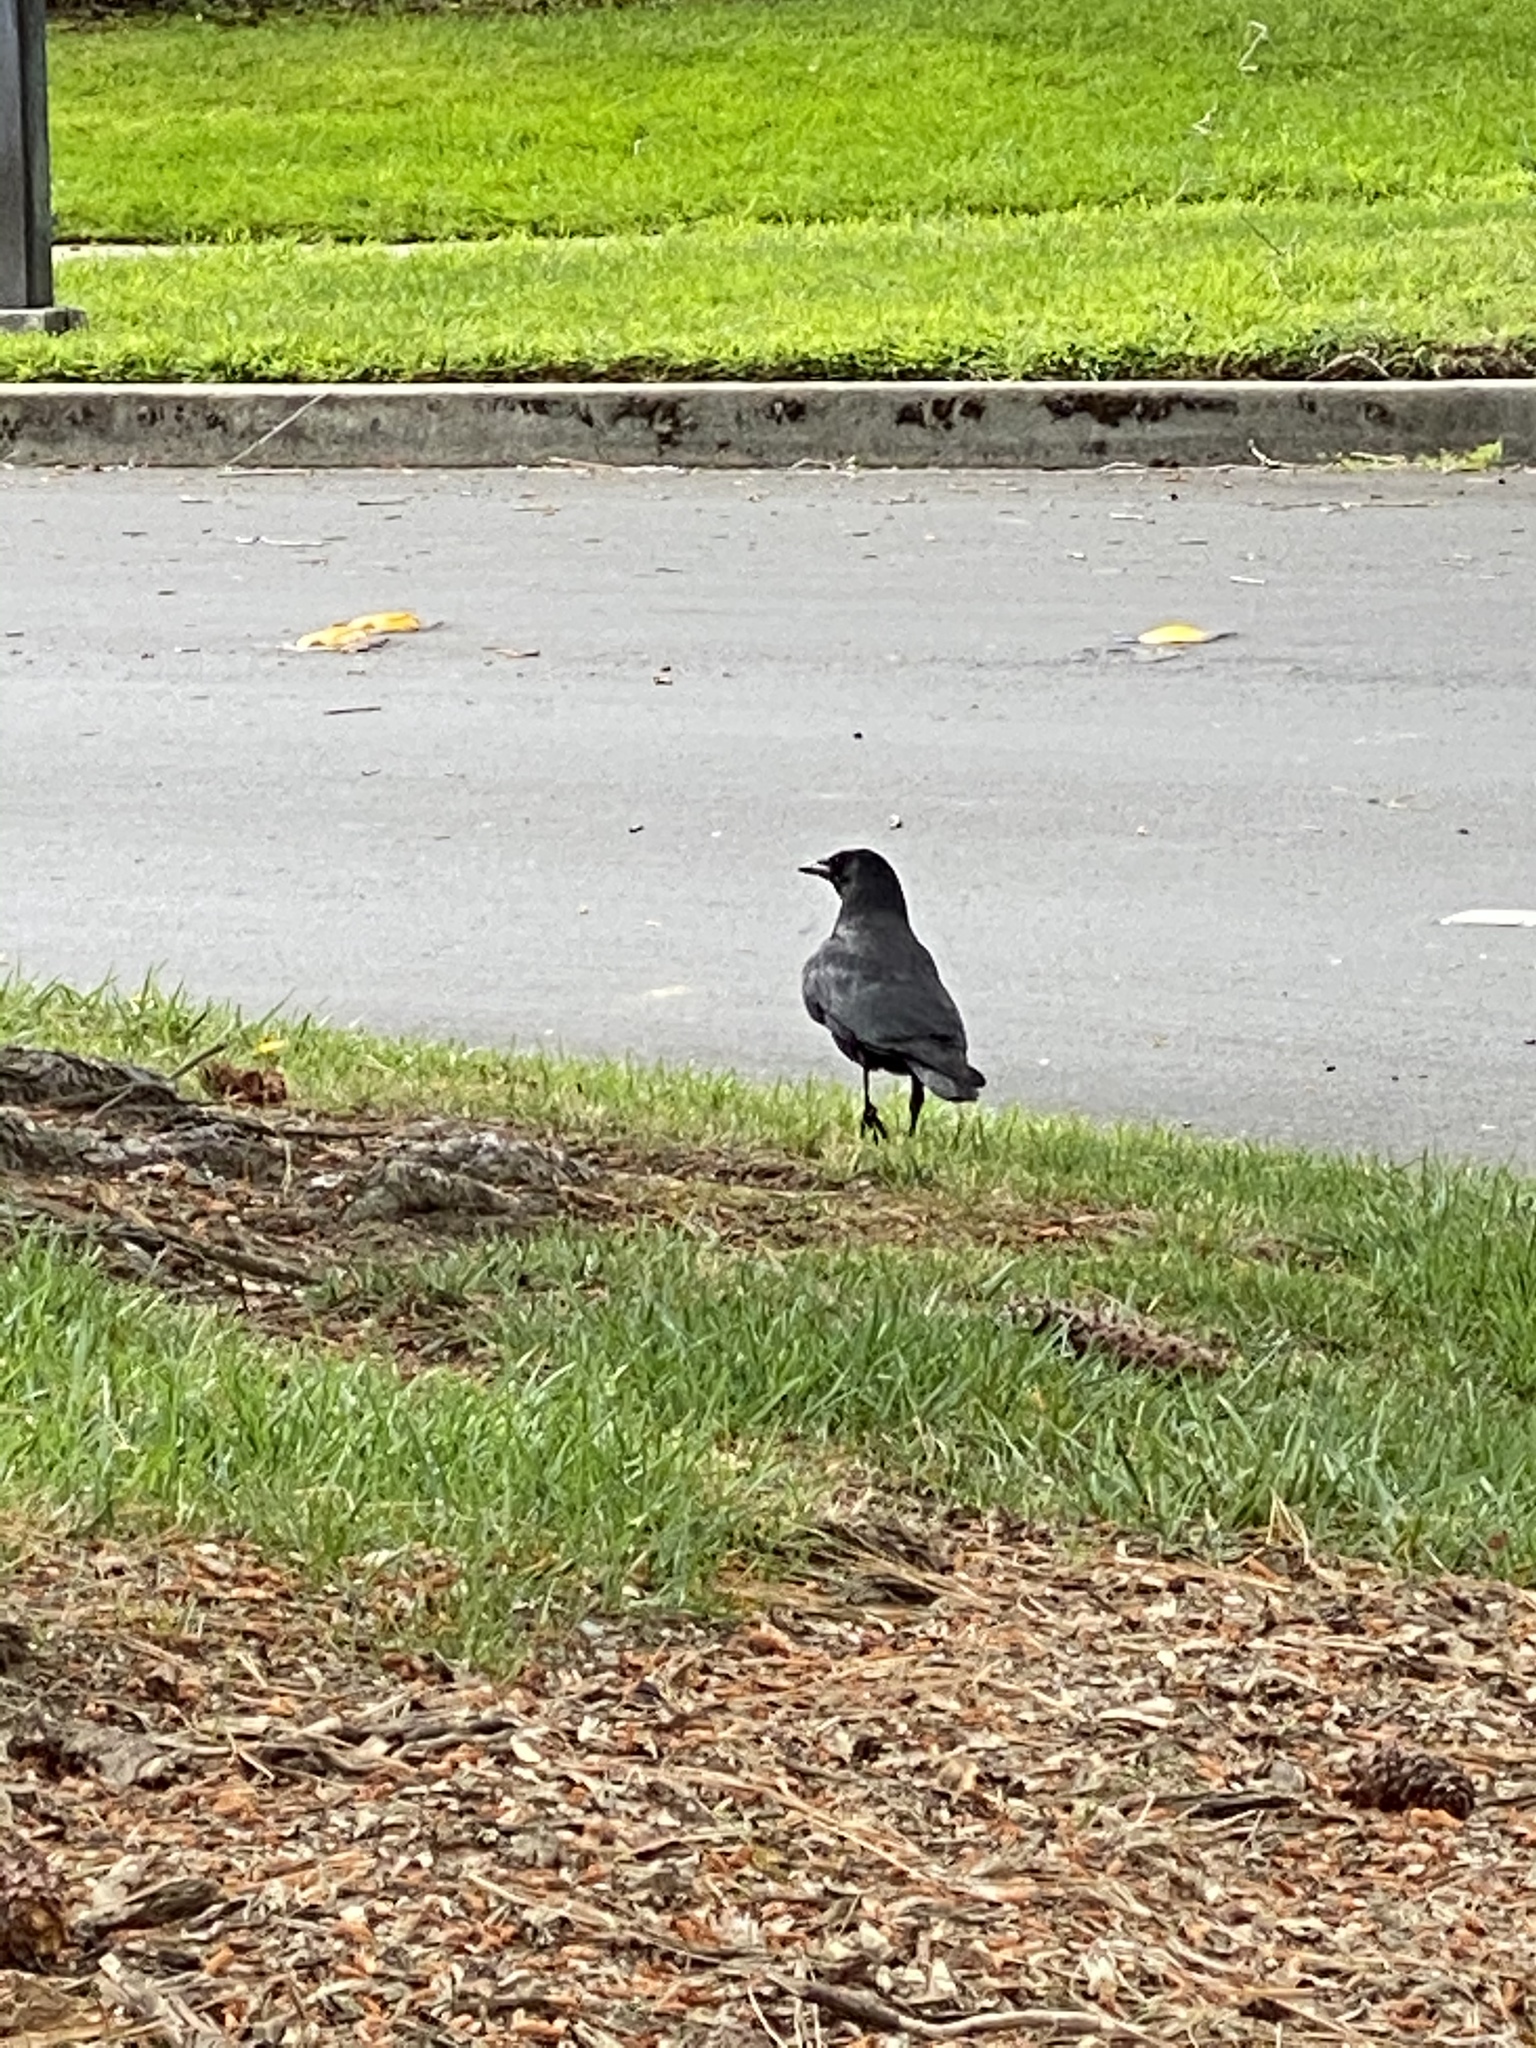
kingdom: Animalia
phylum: Chordata
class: Aves
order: Passeriformes
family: Corvidae
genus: Corvus
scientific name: Corvus brachyrhynchos
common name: American crow
